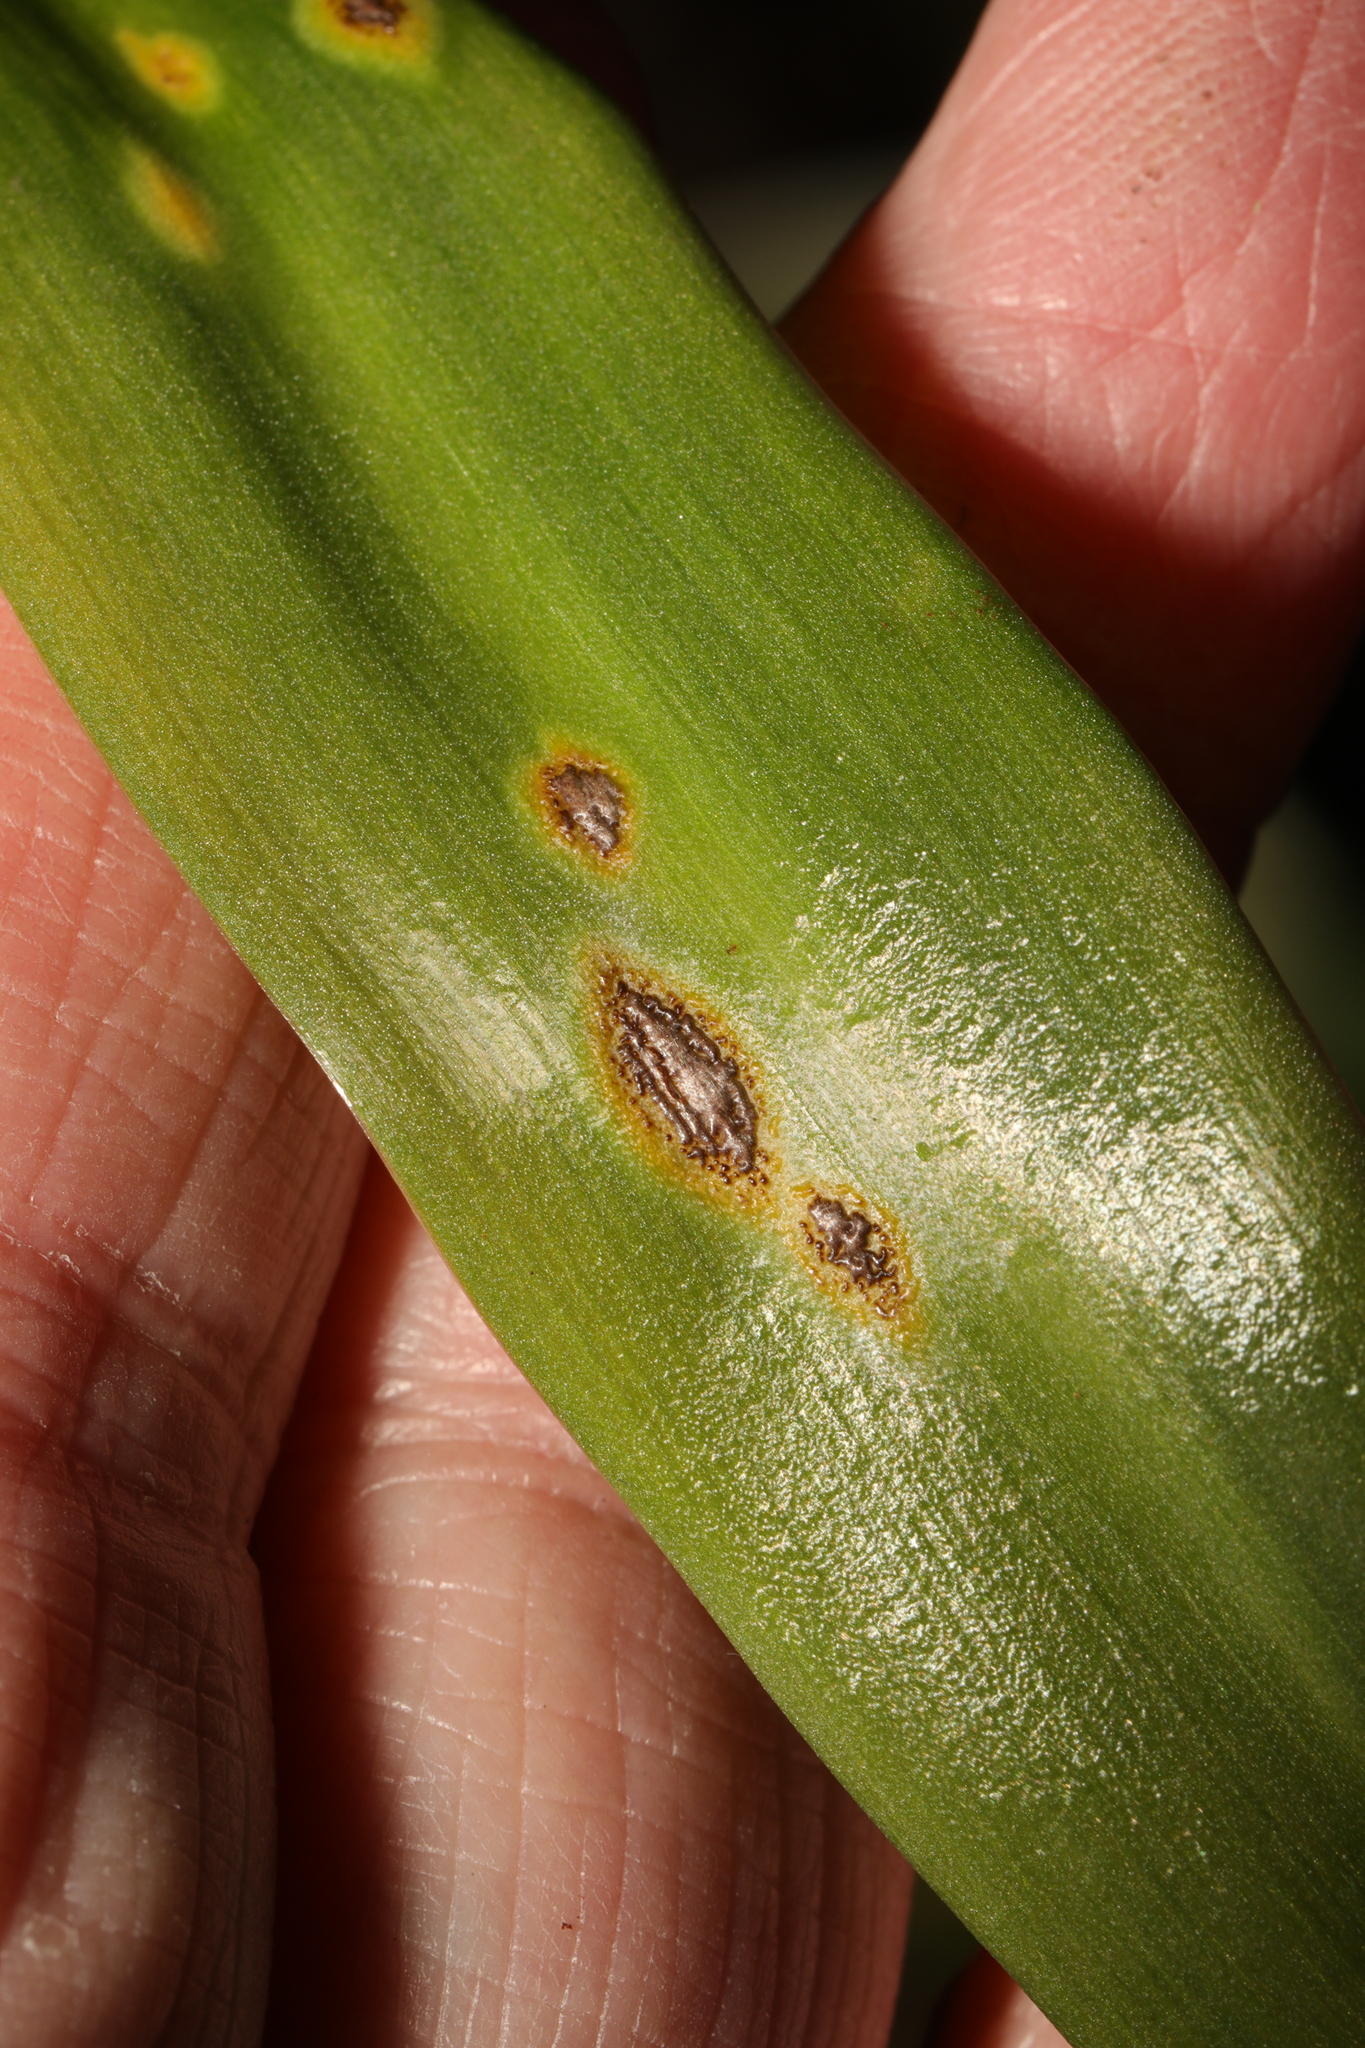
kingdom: Fungi
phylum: Basidiomycota
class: Pucciniomycetes
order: Pucciniales
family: Pucciniaceae
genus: Uromyces
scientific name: Uromyces hyacinthi
